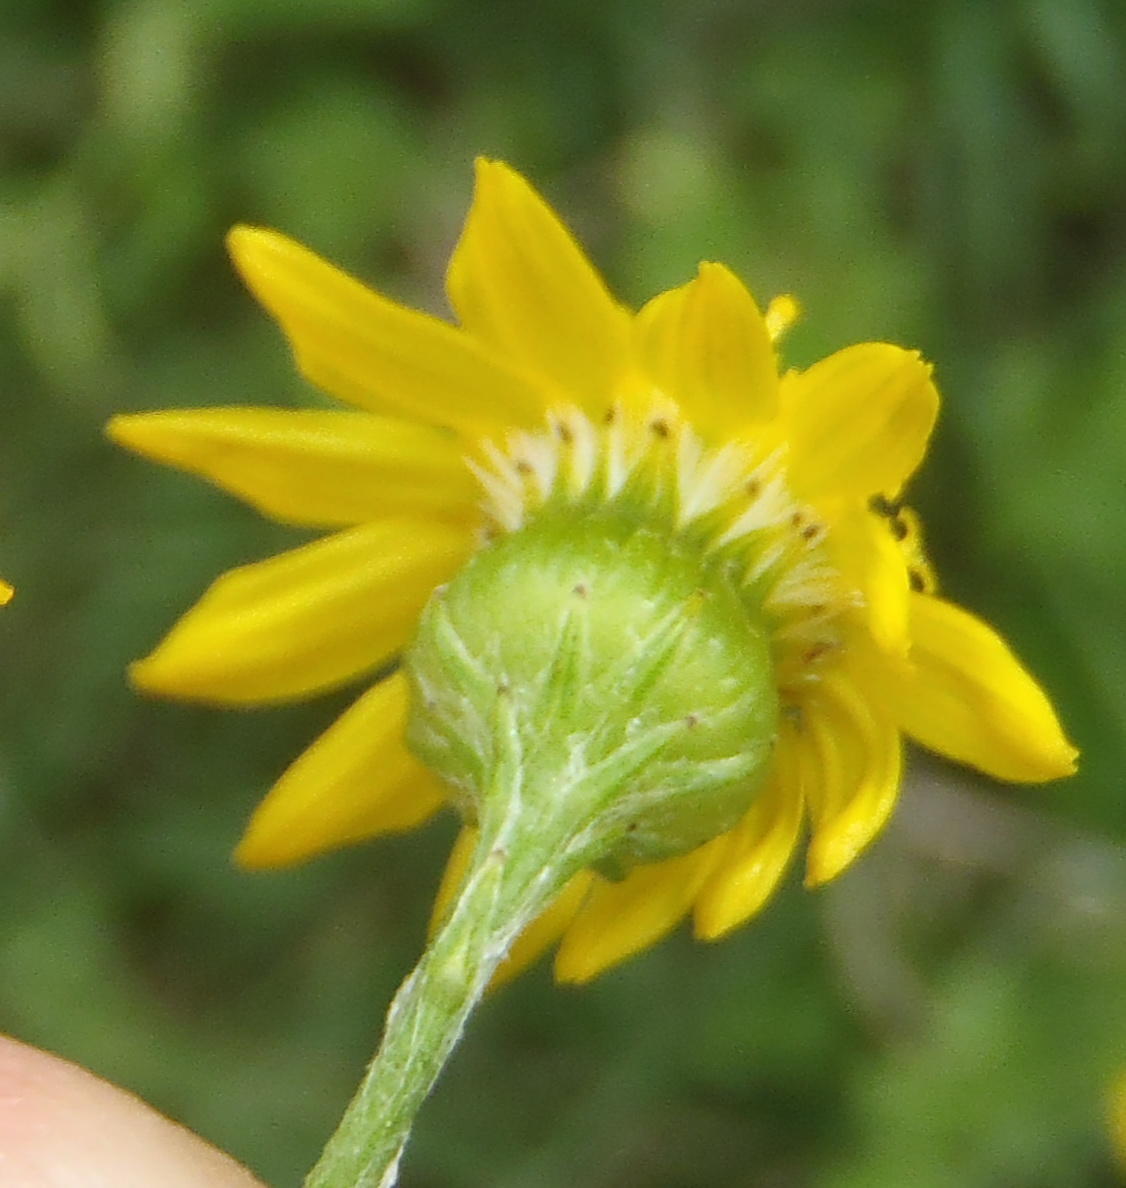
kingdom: Plantae
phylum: Tracheophyta
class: Magnoliopsida
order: Asterales
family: Asteraceae
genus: Senecio
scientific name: Senecio ilicifolius
